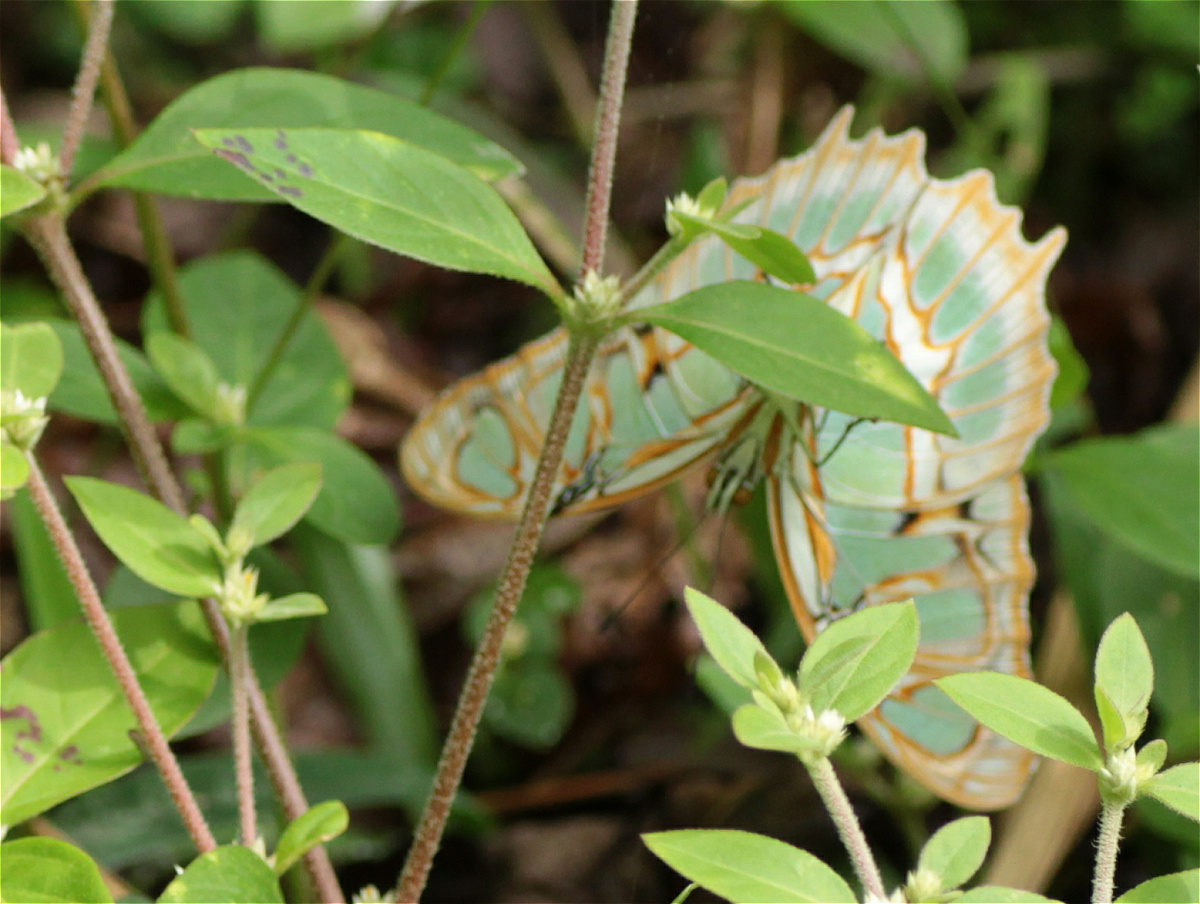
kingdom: Animalia
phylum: Arthropoda
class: Insecta
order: Lepidoptera
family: Nymphalidae
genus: Siproeta
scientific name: Siproeta stelenes
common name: Malachite
